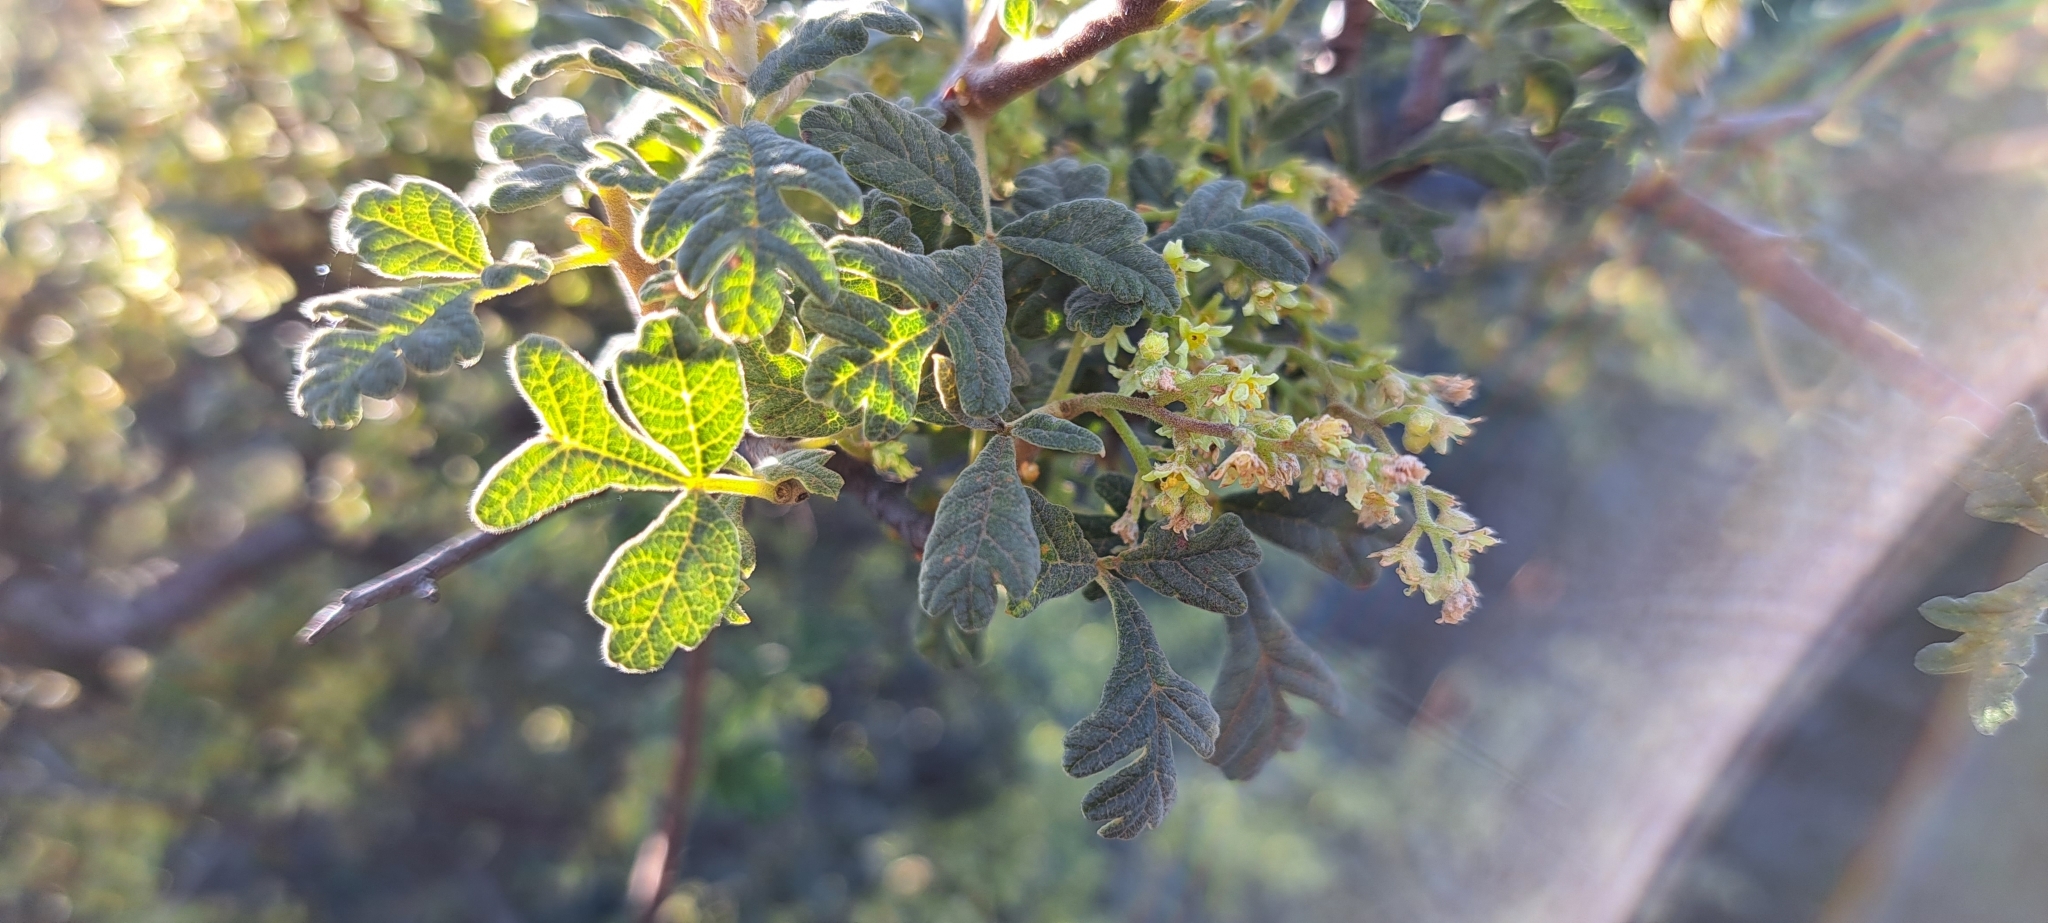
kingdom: Plantae
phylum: Tracheophyta
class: Magnoliopsida
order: Sapindales
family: Anacardiaceae
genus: Searsia
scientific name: Searsia incisa
